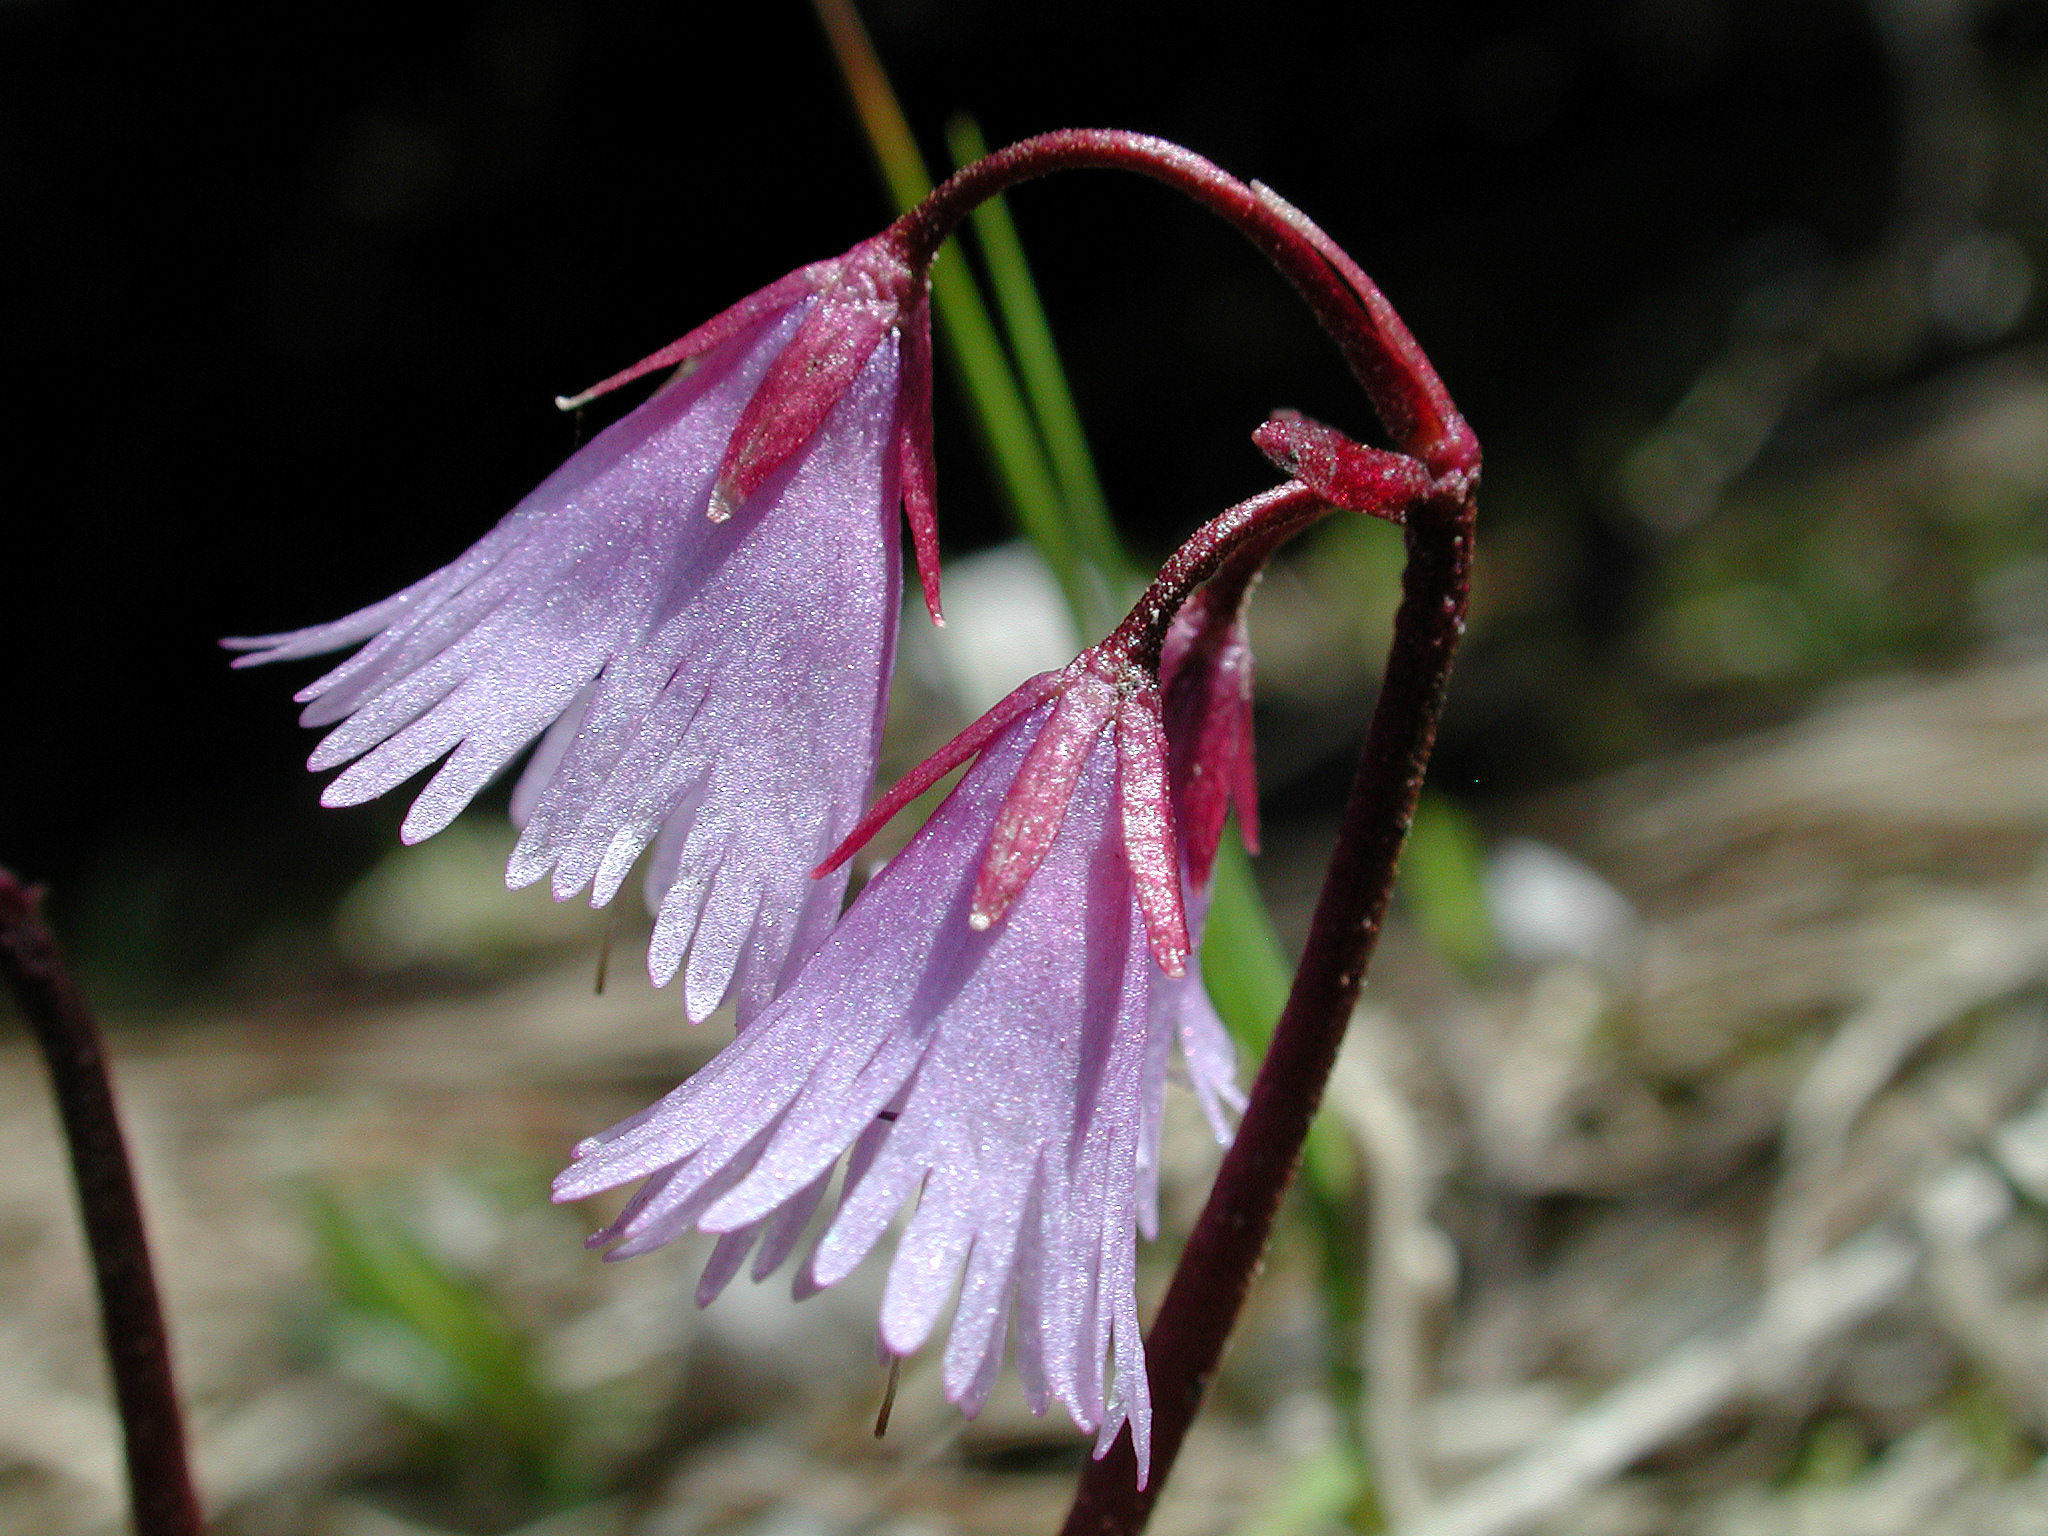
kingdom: Plantae
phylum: Tracheophyta
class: Magnoliopsida
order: Ericales
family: Primulaceae
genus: Soldanella
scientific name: Soldanella alpina
